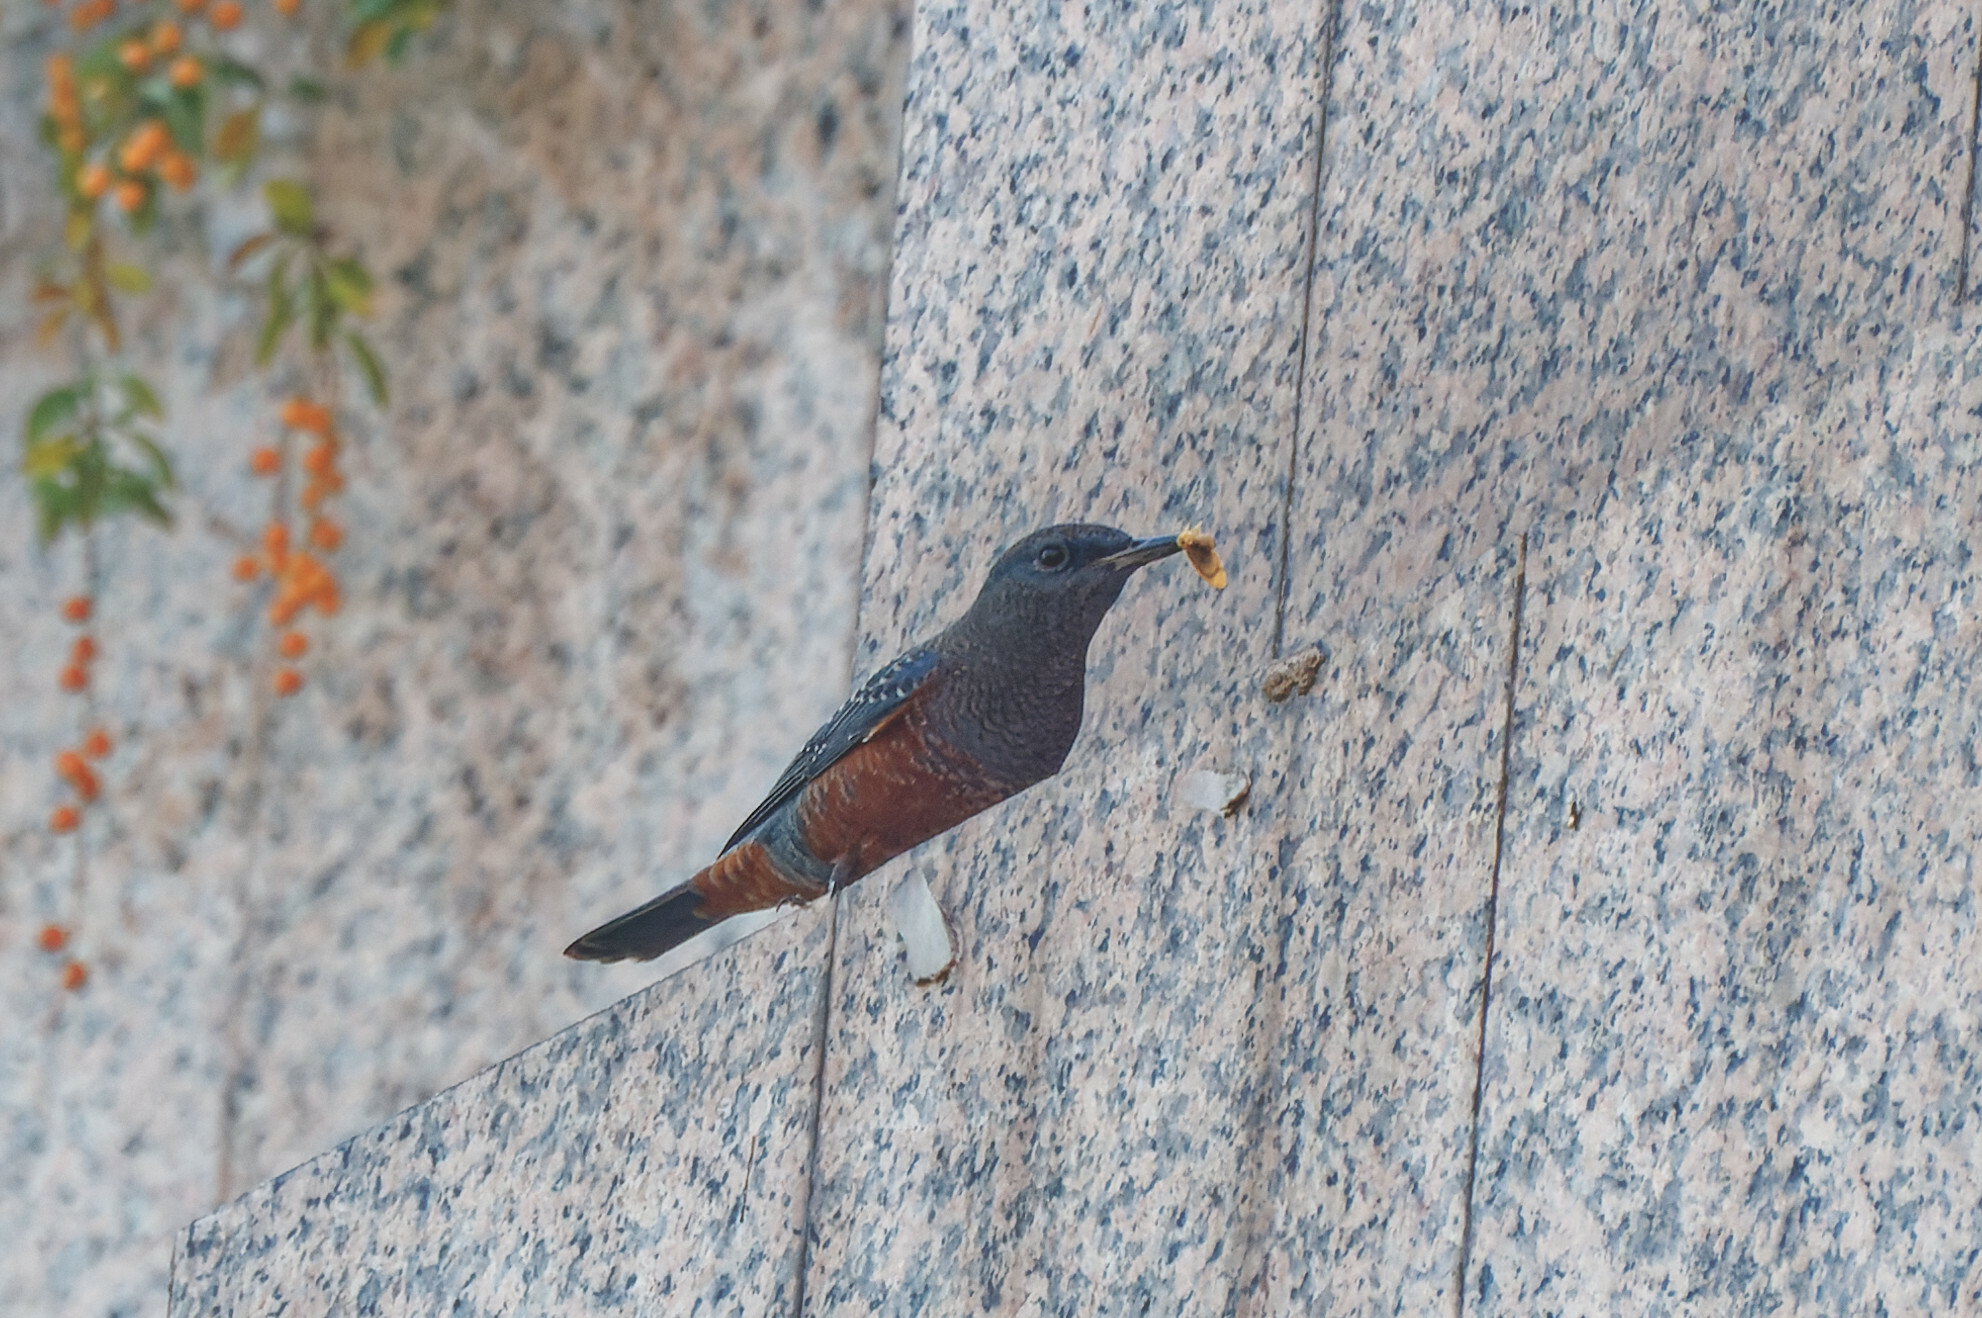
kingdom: Animalia
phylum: Chordata
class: Aves
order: Passeriformes
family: Muscicapidae
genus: Monticola
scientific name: Monticola solitarius
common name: Blue rock thrush
